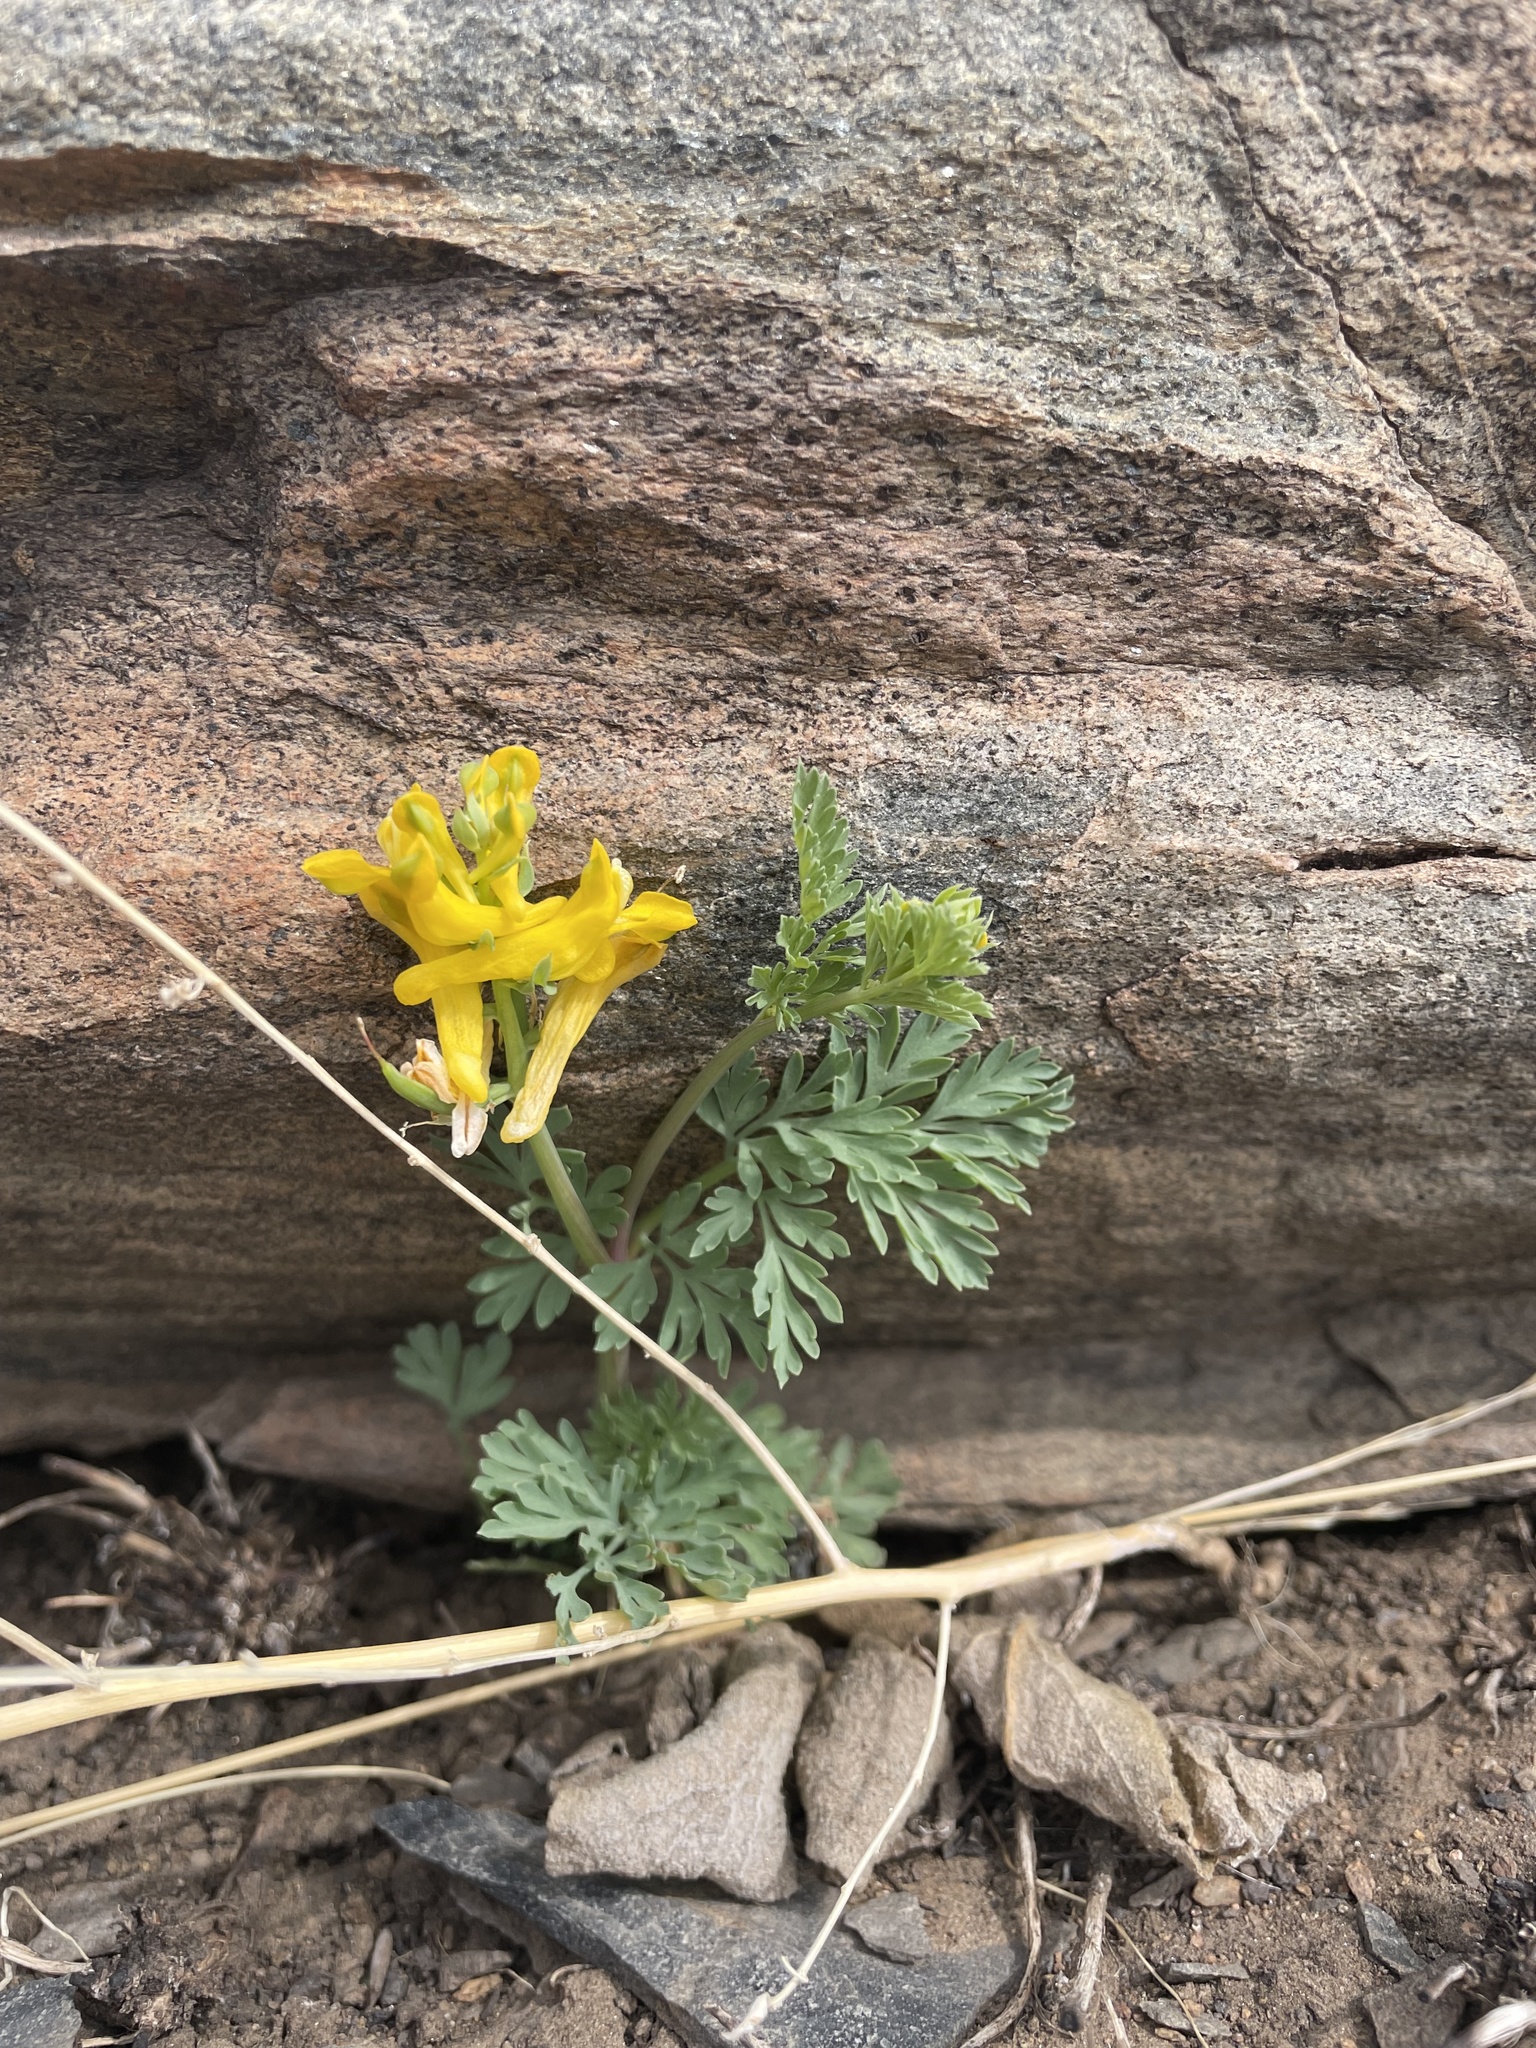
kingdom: Plantae
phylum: Tracheophyta
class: Magnoliopsida
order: Ranunculales
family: Papaveraceae
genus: Corydalis
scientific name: Corydalis aurea
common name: Golden corydalis
